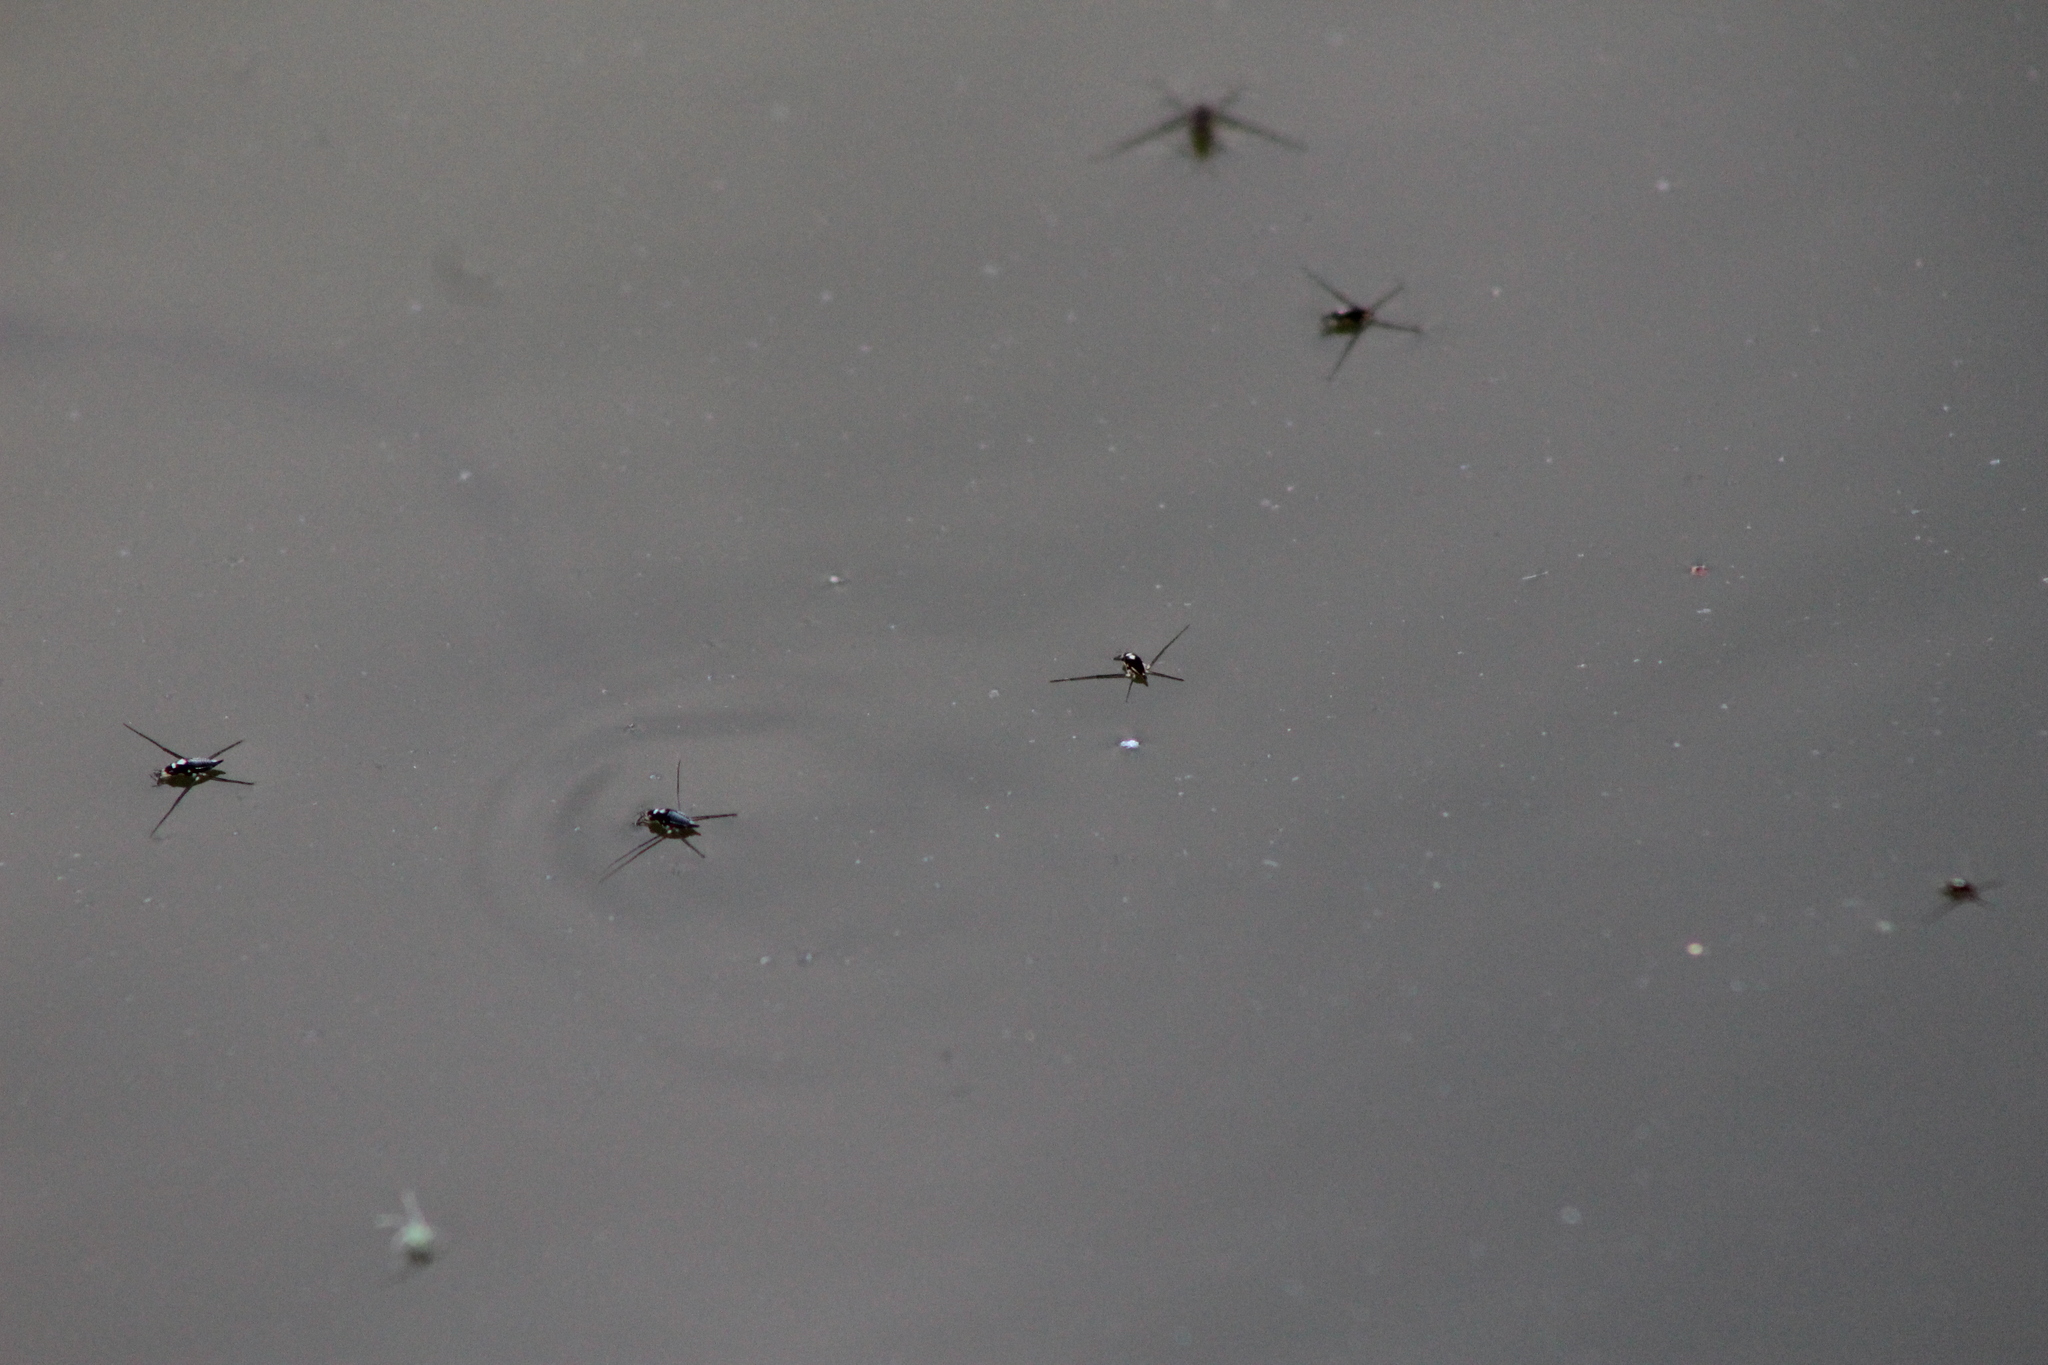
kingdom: Animalia
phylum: Arthropoda
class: Insecta
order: Hemiptera
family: Gerridae
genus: Rheumatobates
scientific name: Rheumatobates
